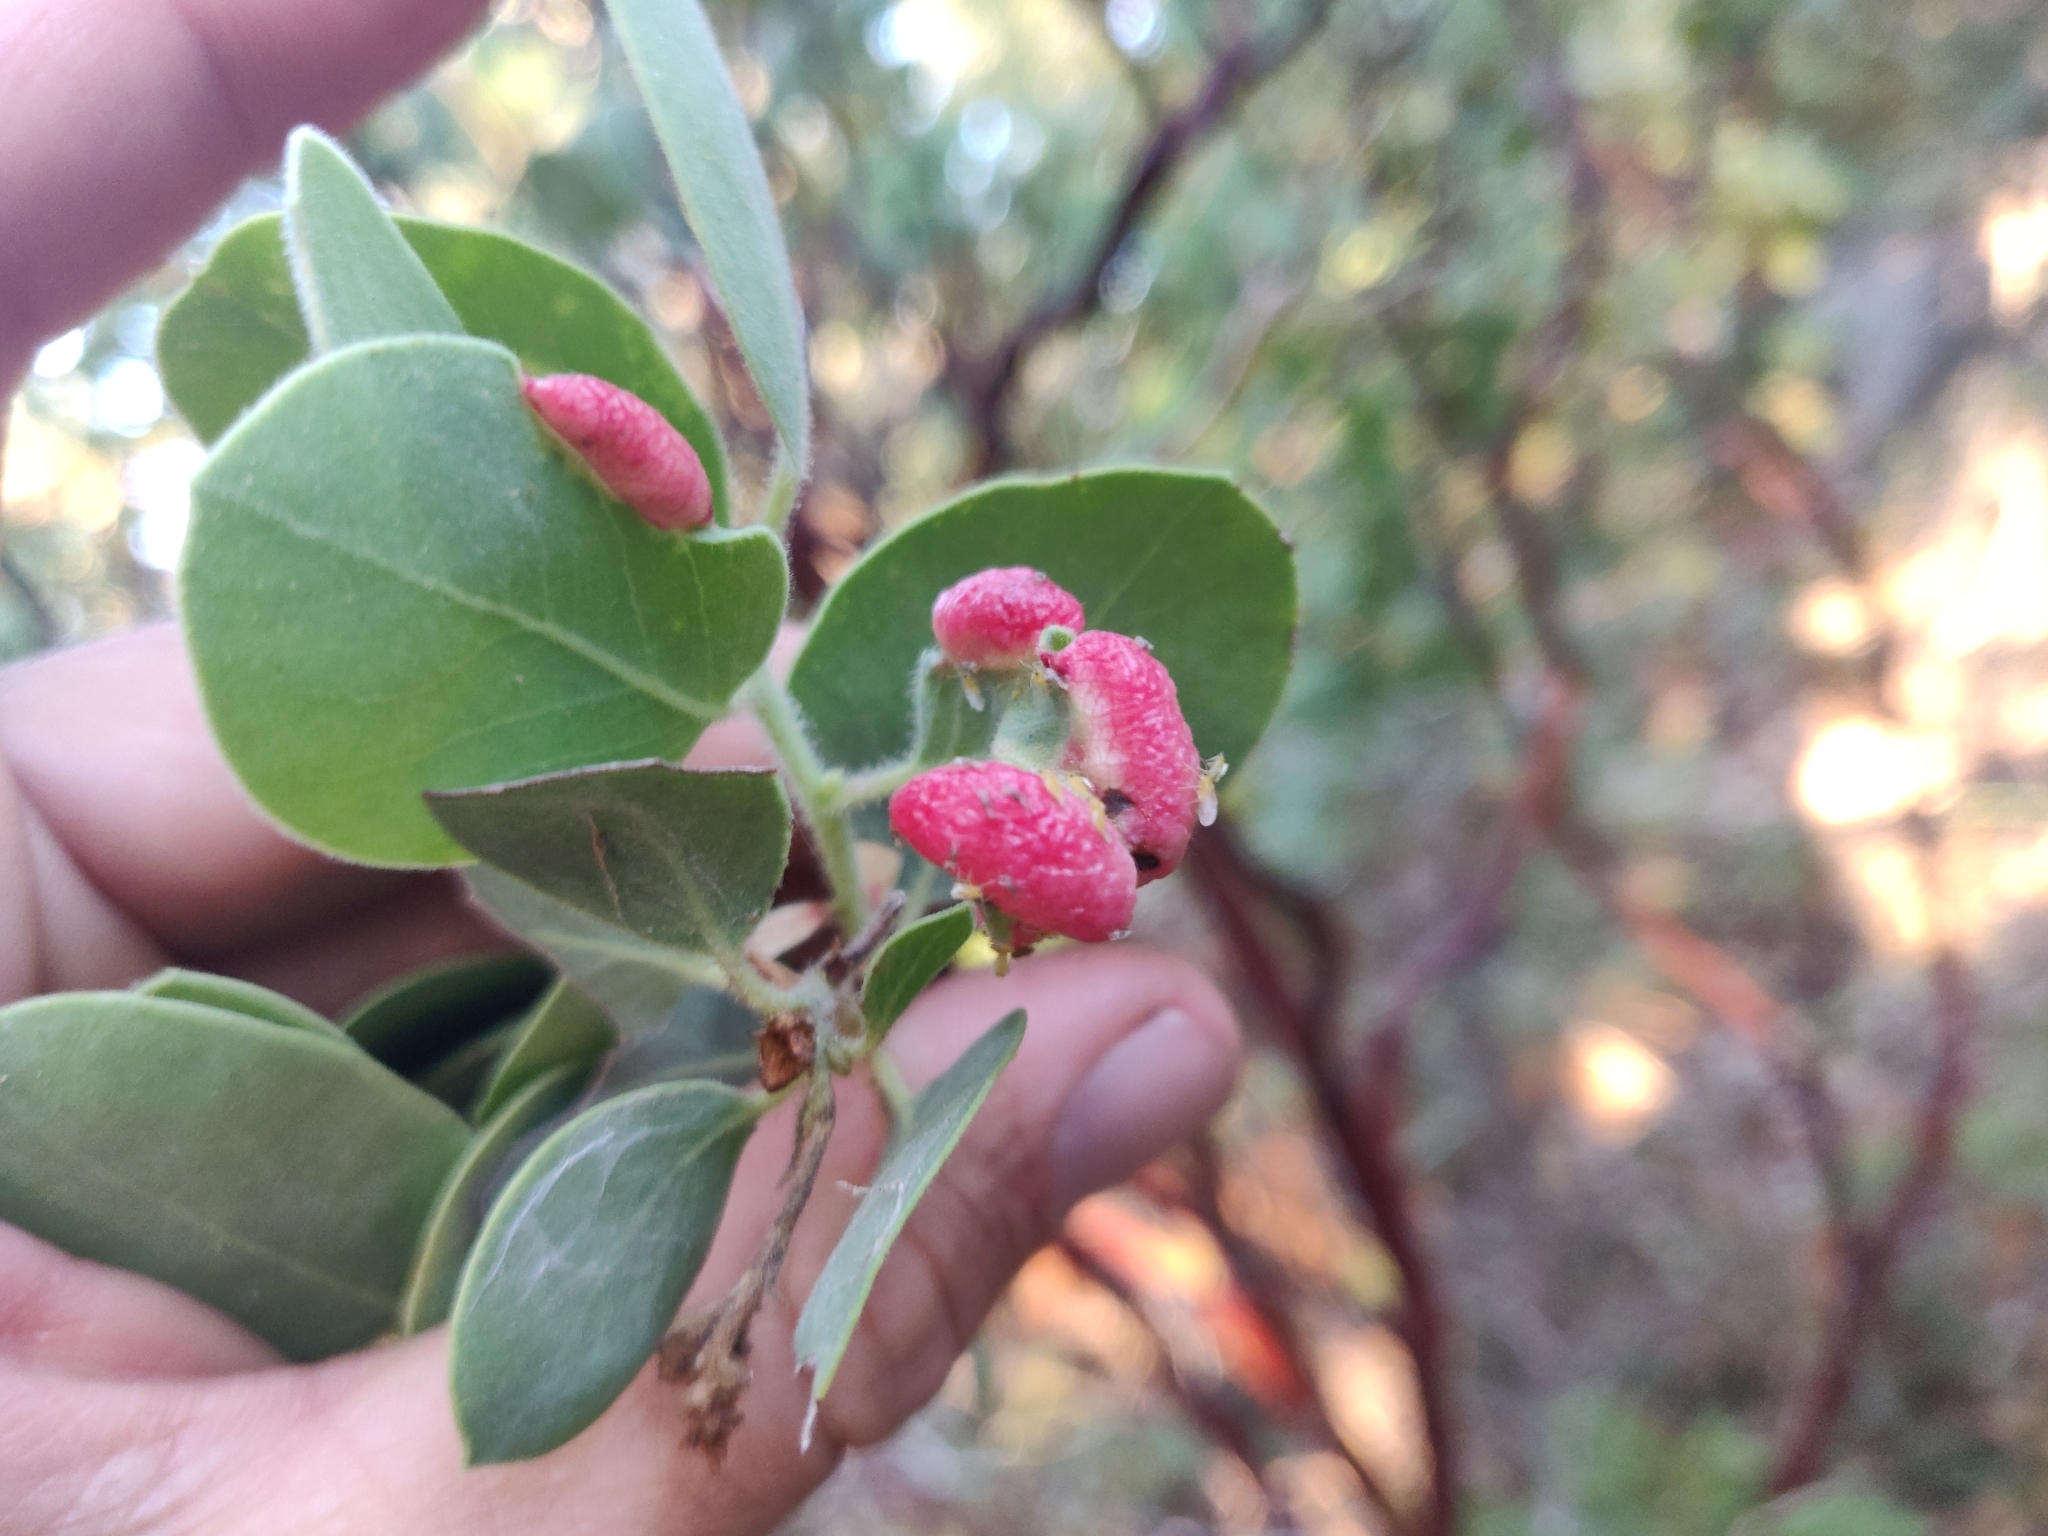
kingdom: Animalia
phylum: Arthropoda
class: Insecta
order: Hemiptera
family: Aphididae
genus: Tamalia
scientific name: Tamalia coweni
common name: Manzanita leafgall aphid
